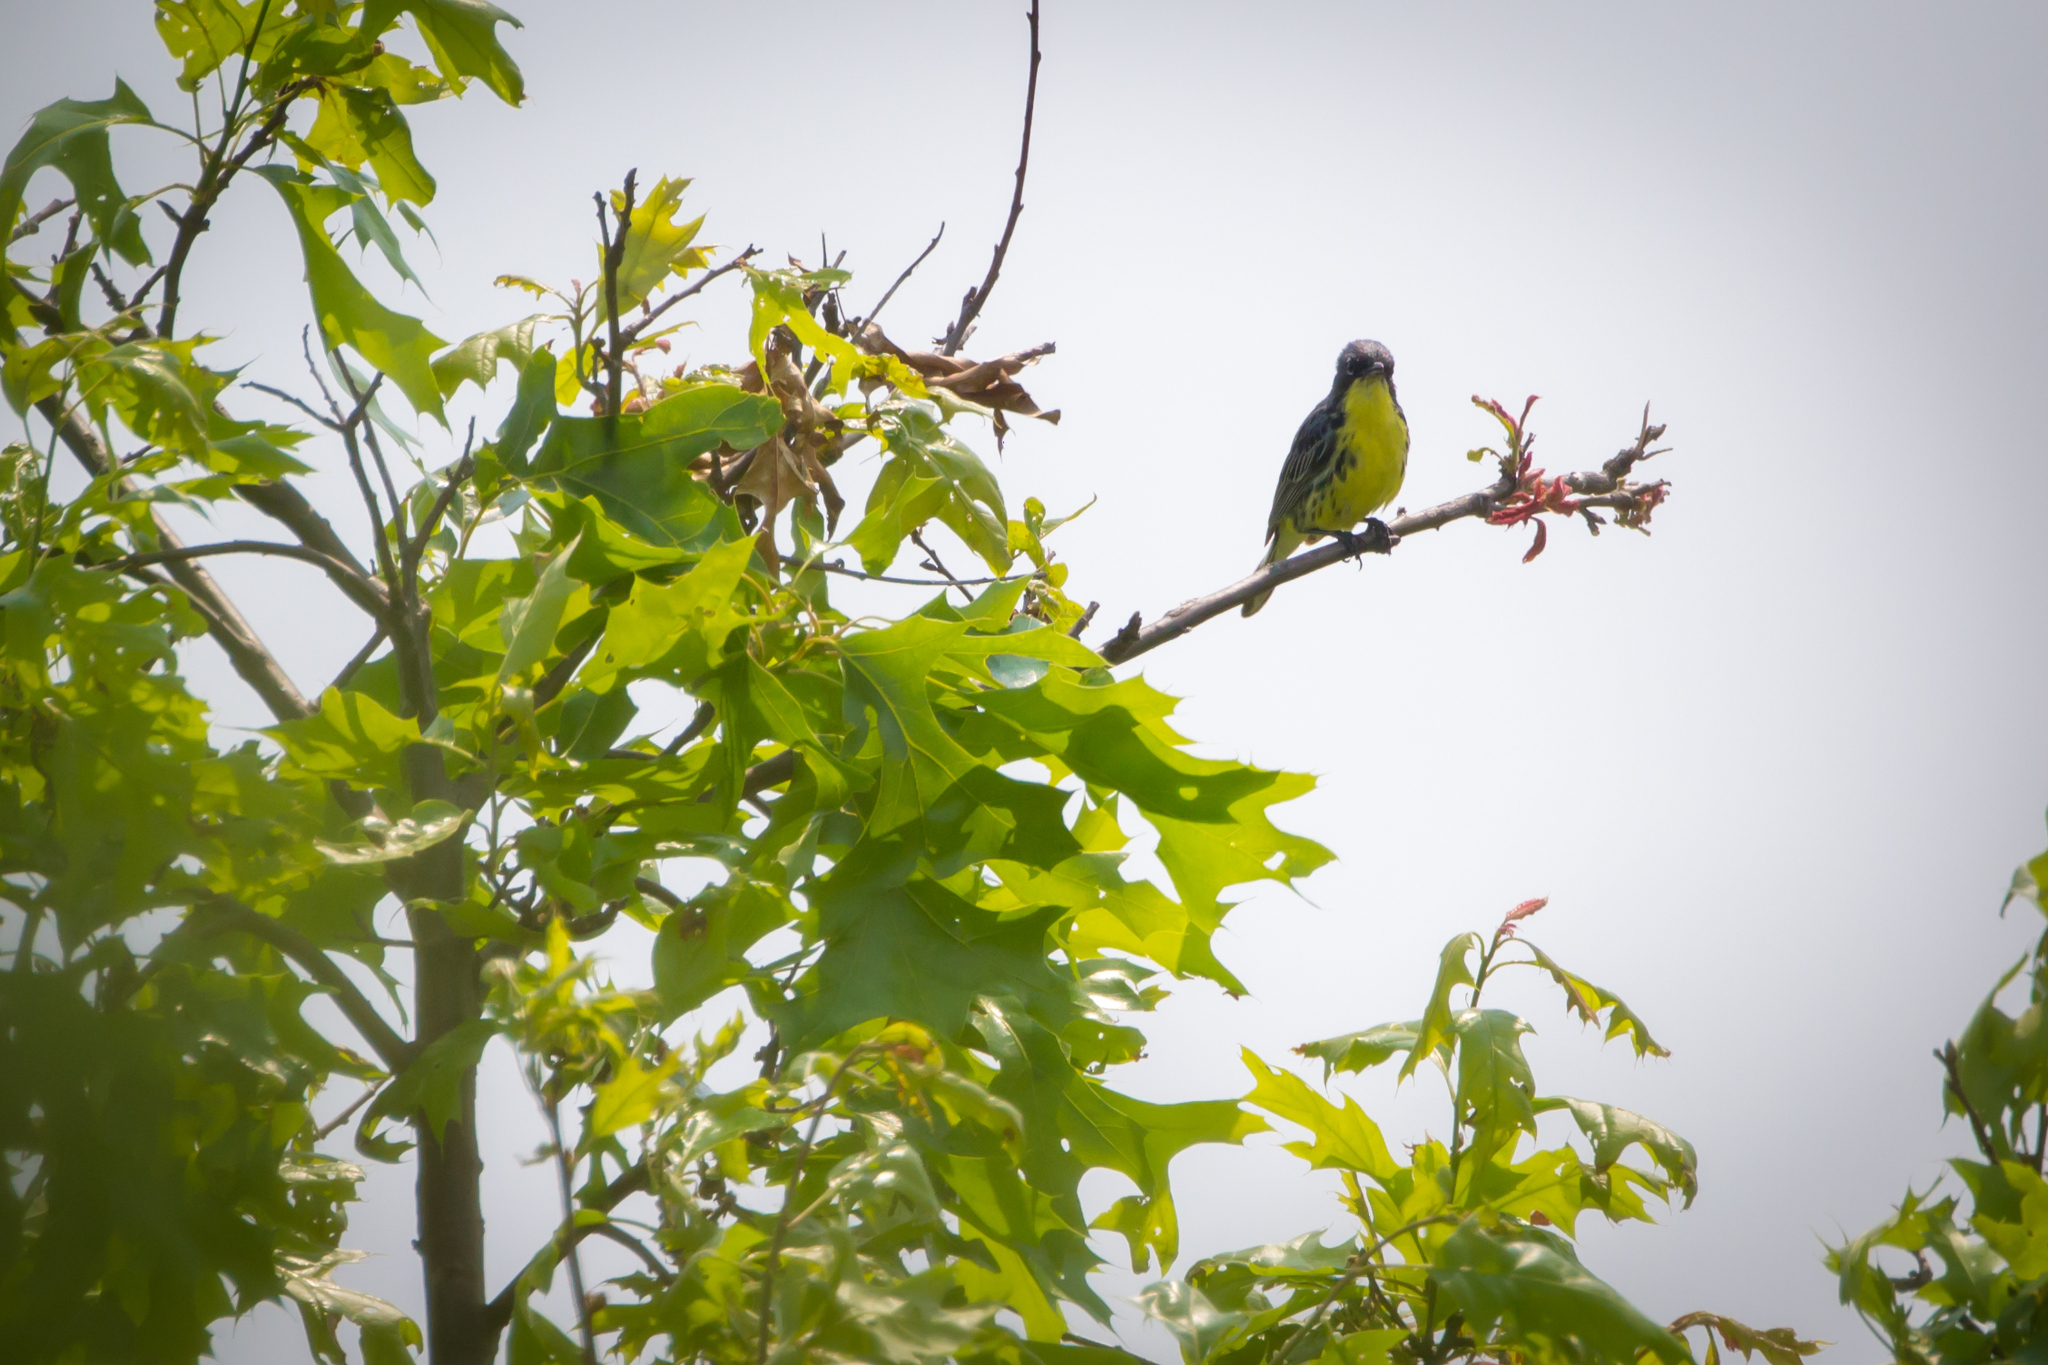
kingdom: Animalia
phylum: Chordata
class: Aves
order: Passeriformes
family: Parulidae
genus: Setophaga
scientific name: Setophaga kirtlandii
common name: Kirtland's warbler
